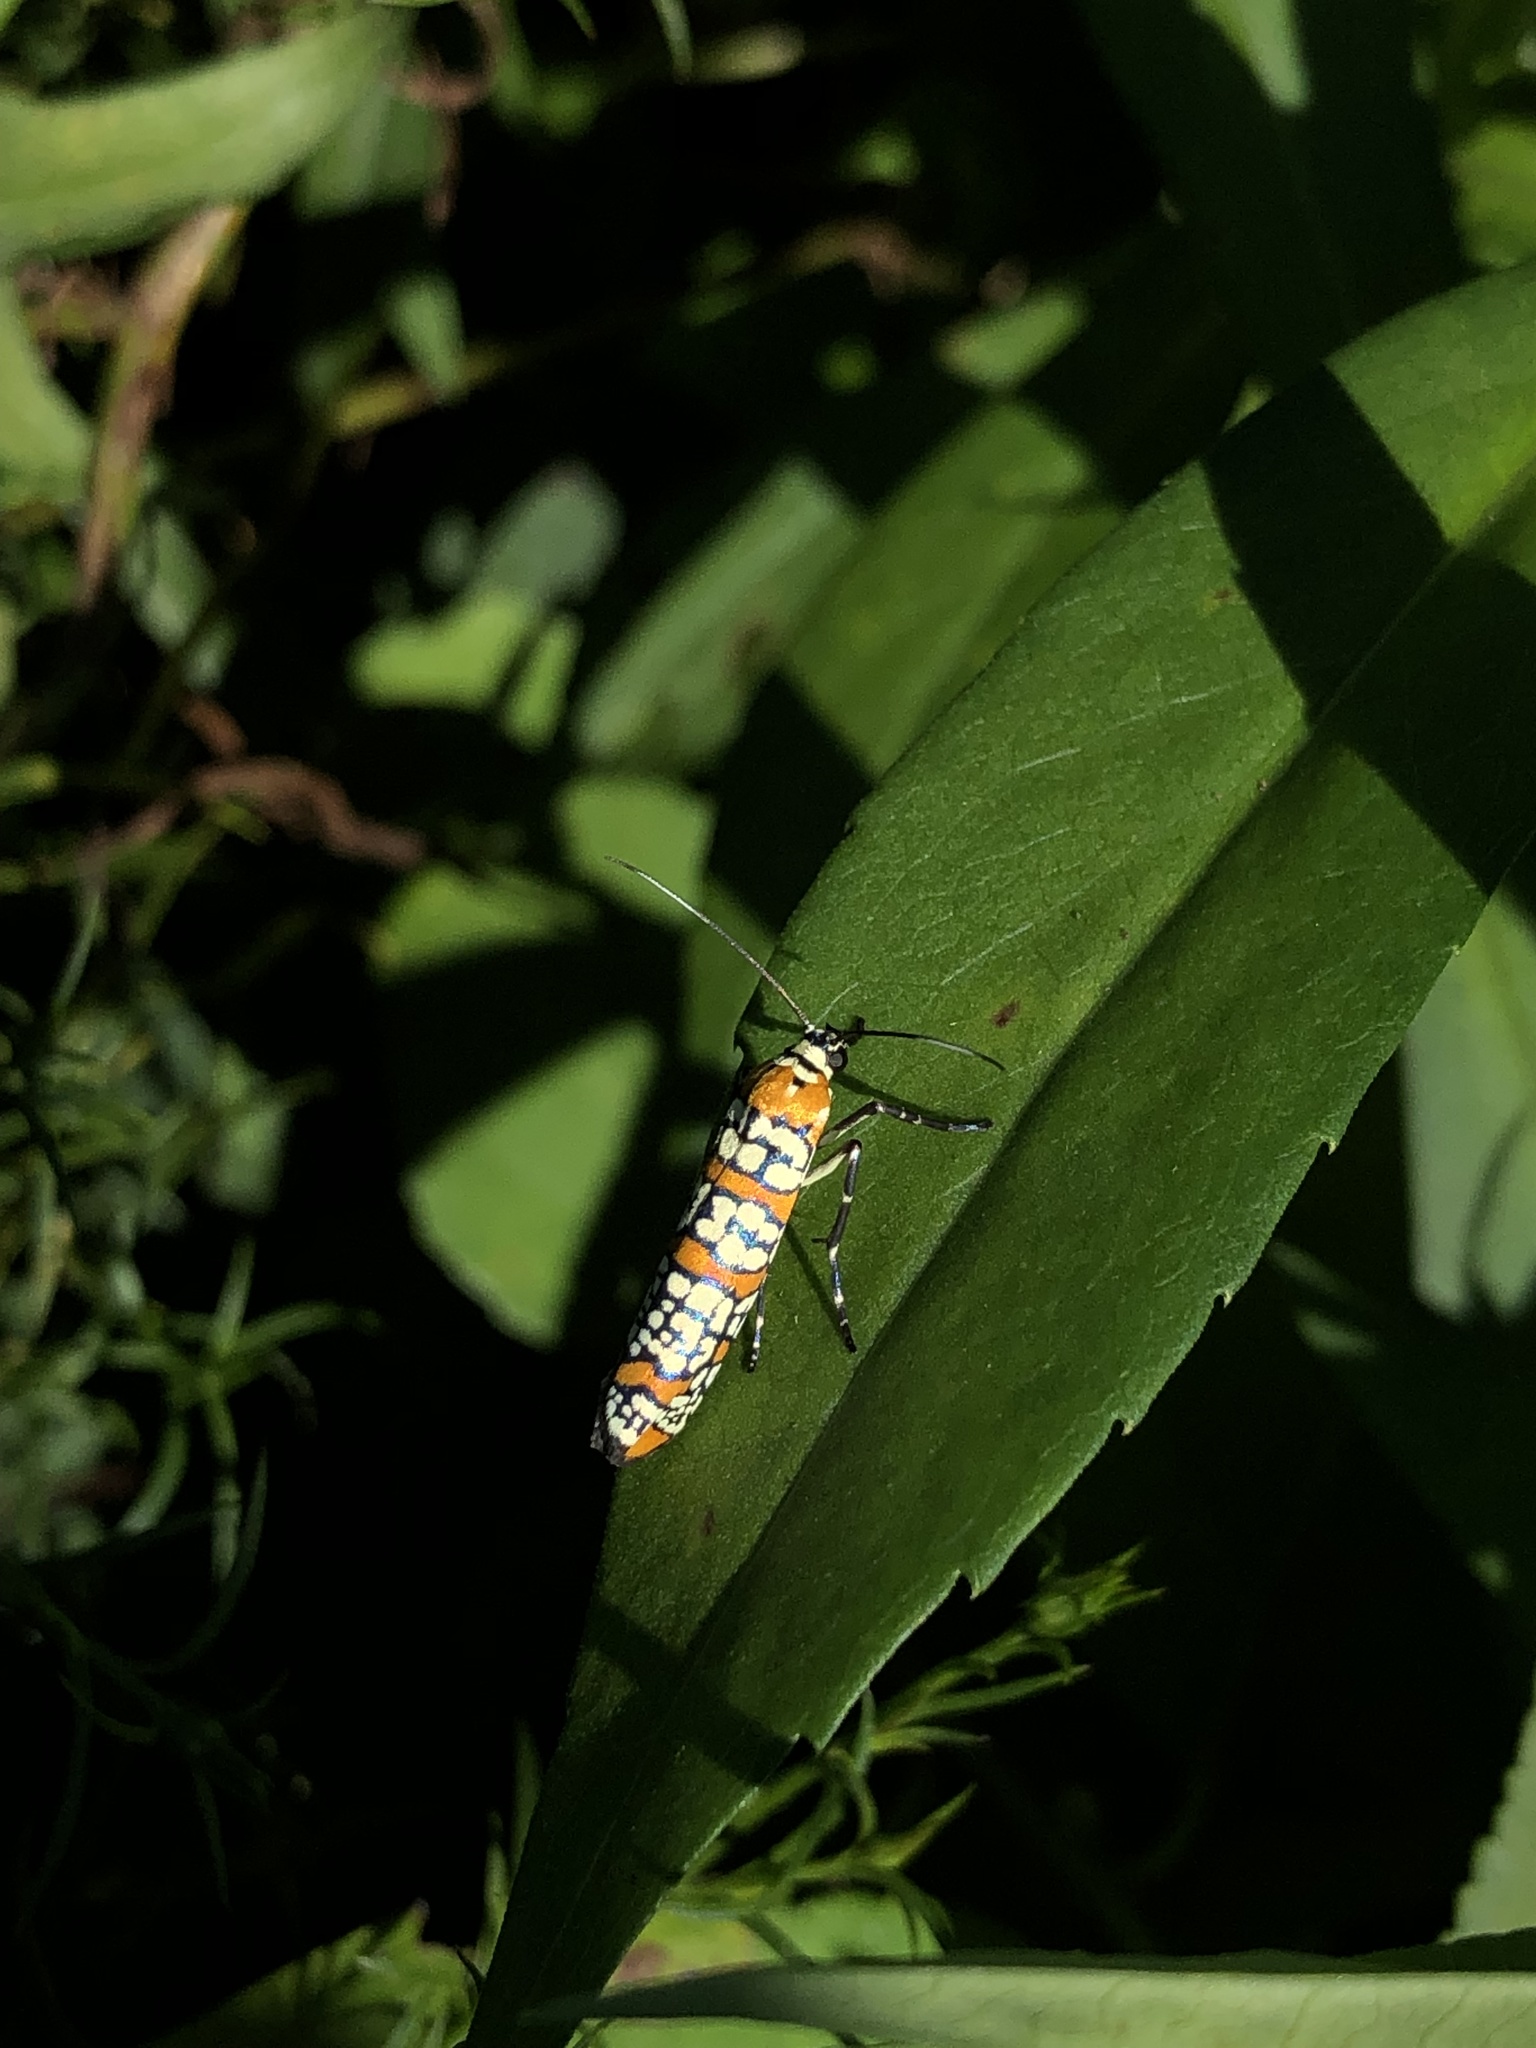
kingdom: Animalia
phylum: Arthropoda
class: Insecta
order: Lepidoptera
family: Attevidae
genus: Atteva
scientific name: Atteva punctella
